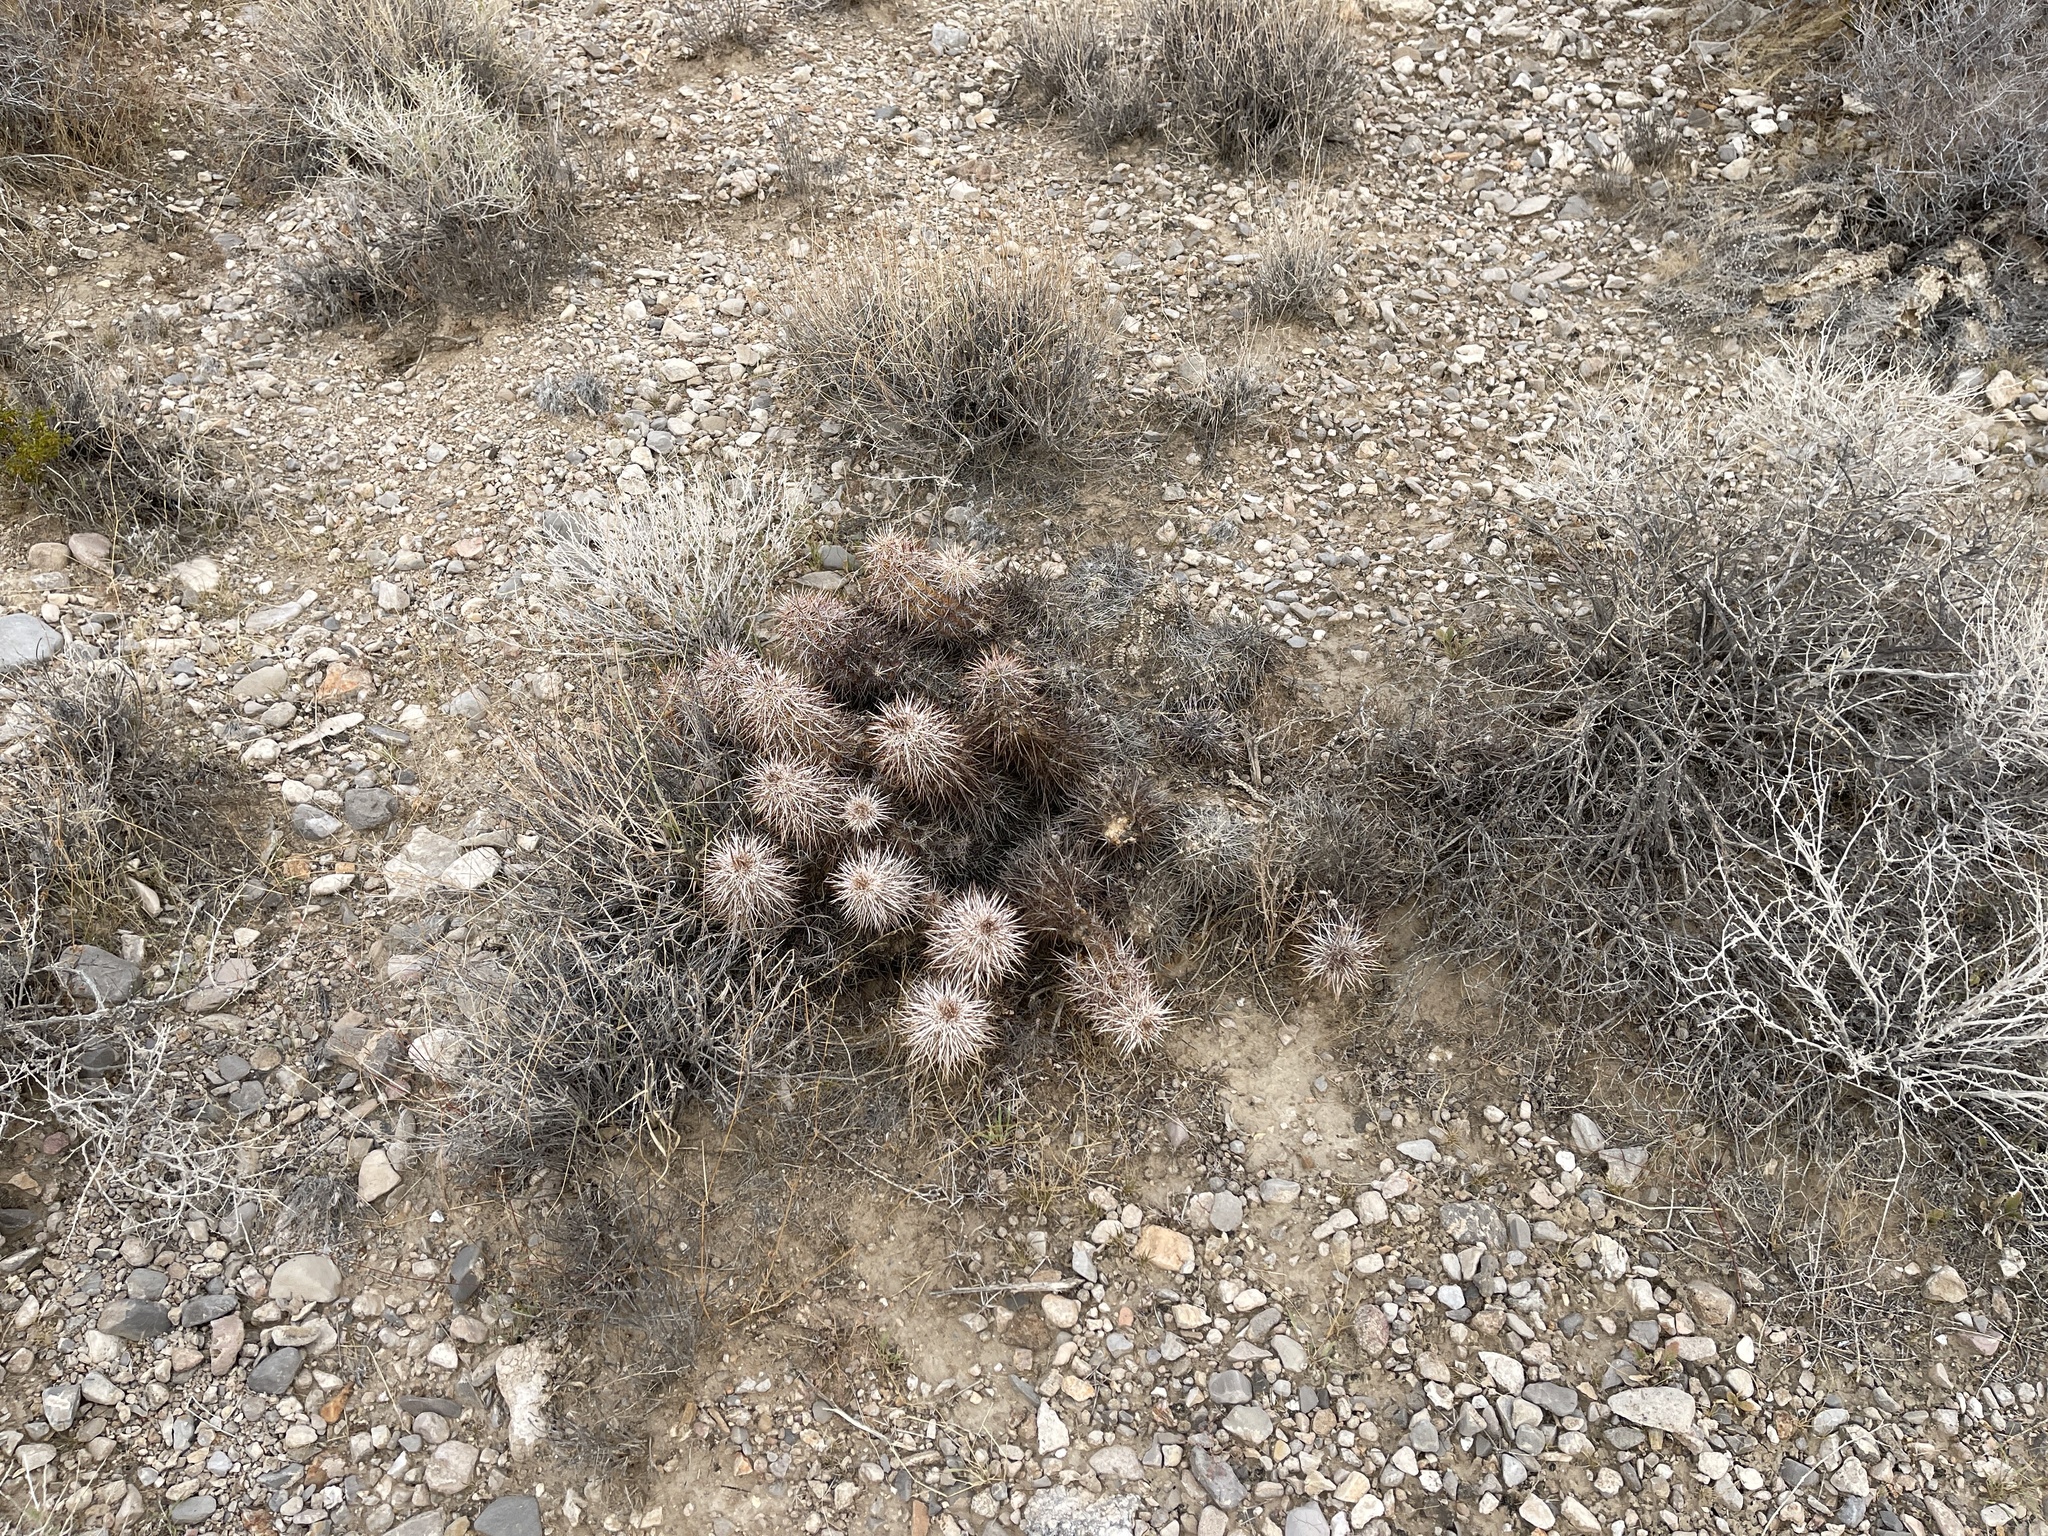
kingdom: Plantae
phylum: Tracheophyta
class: Magnoliopsida
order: Caryophyllales
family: Cactaceae
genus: Echinocereus
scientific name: Echinocereus engelmannii
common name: Engelmann's hedgehog cactus
